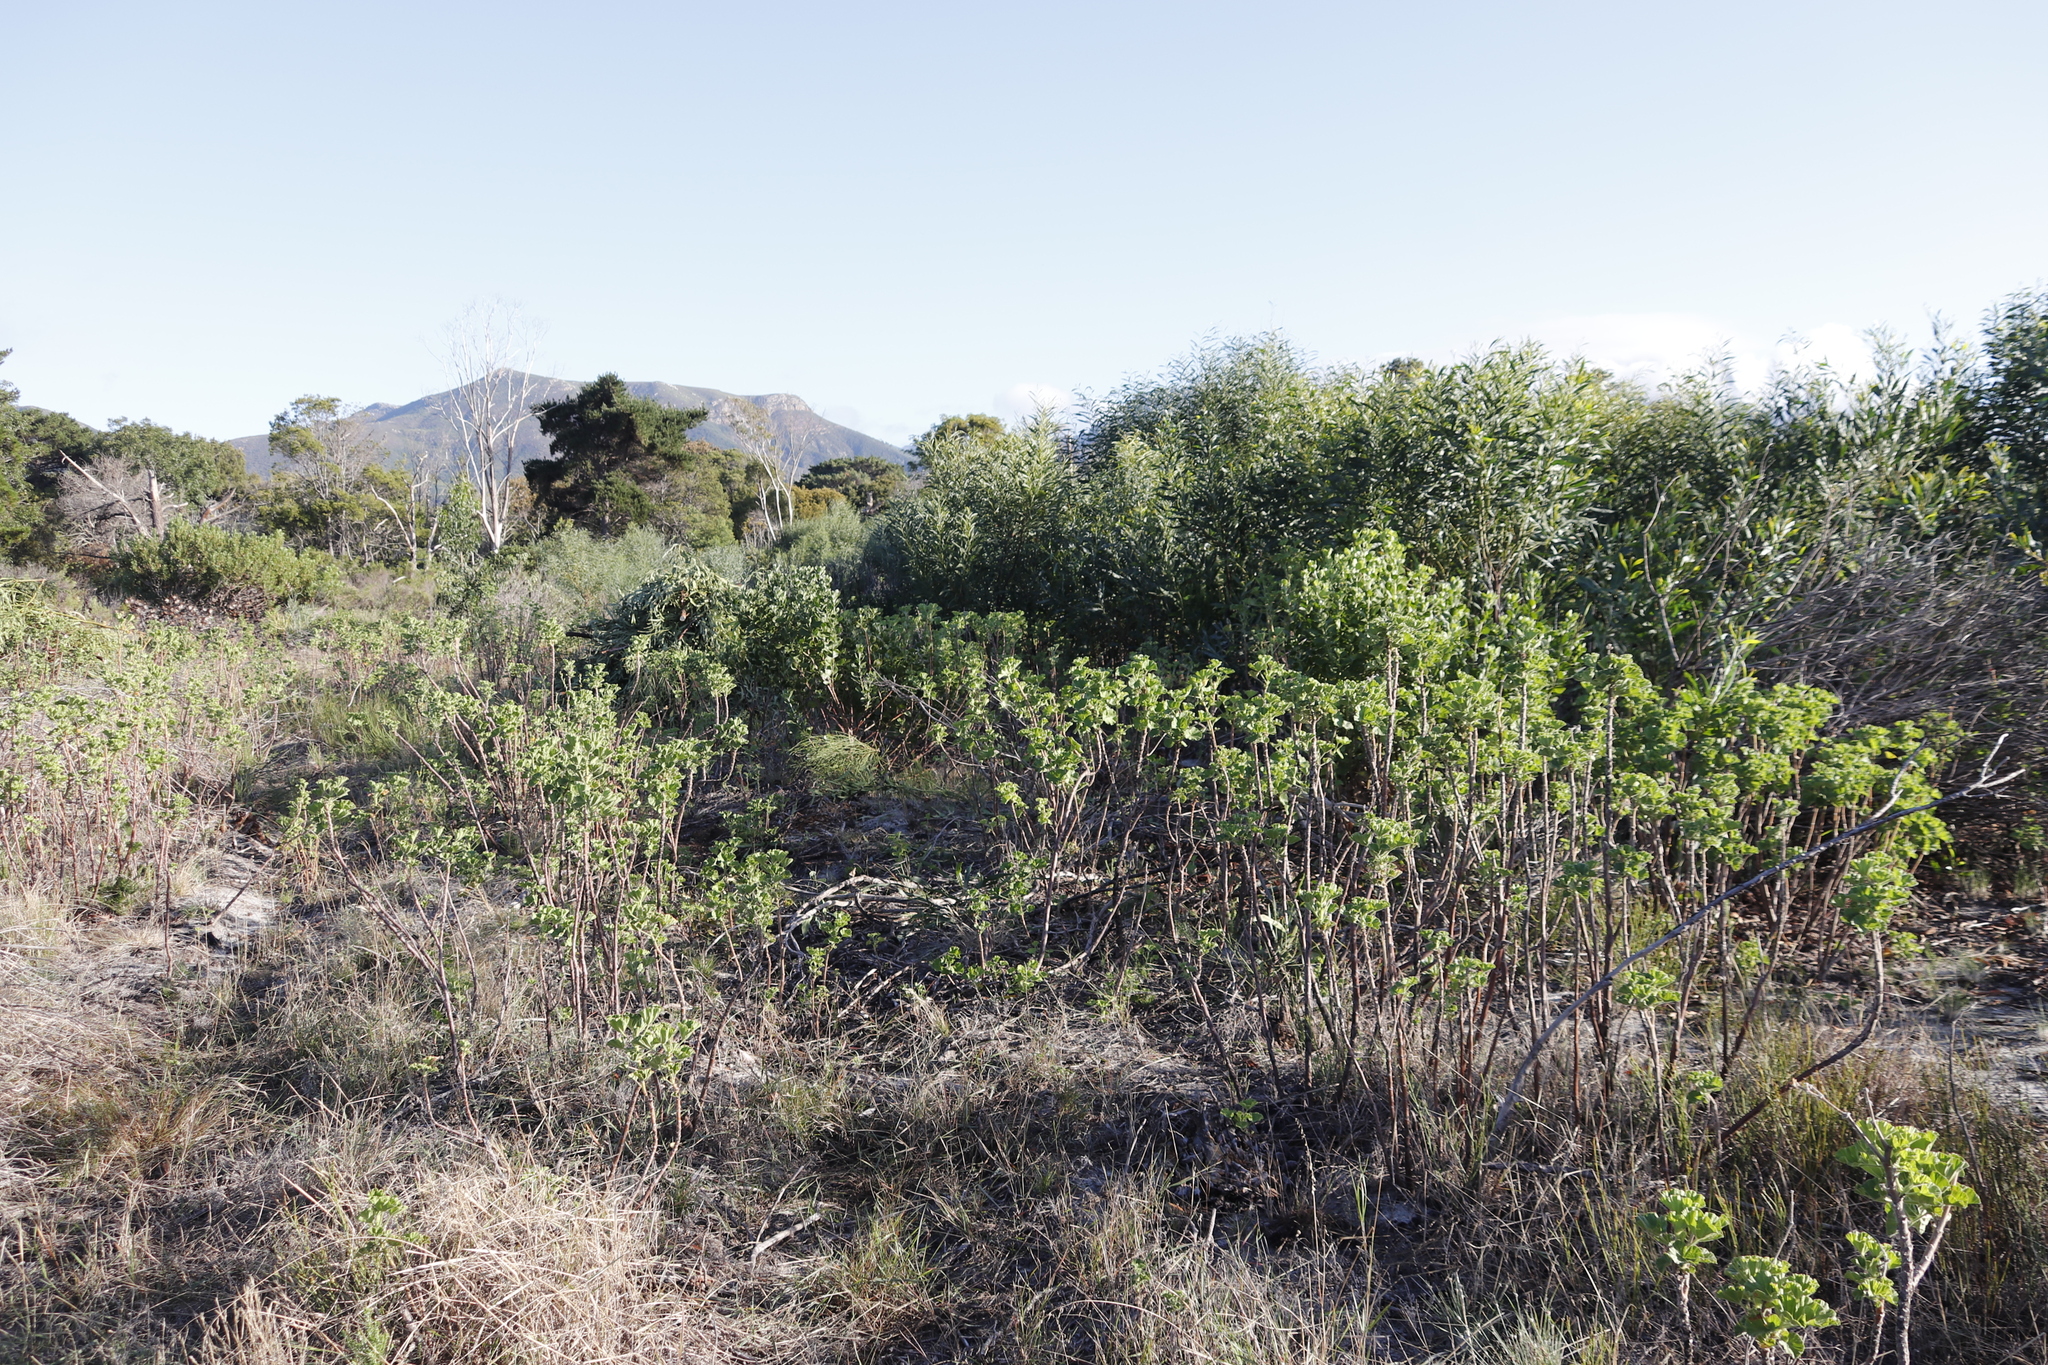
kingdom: Plantae
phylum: Tracheophyta
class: Magnoliopsida
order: Geraniales
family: Geraniaceae
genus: Pelargonium
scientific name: Pelargonium cucullatum
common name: Tree pelargonium
